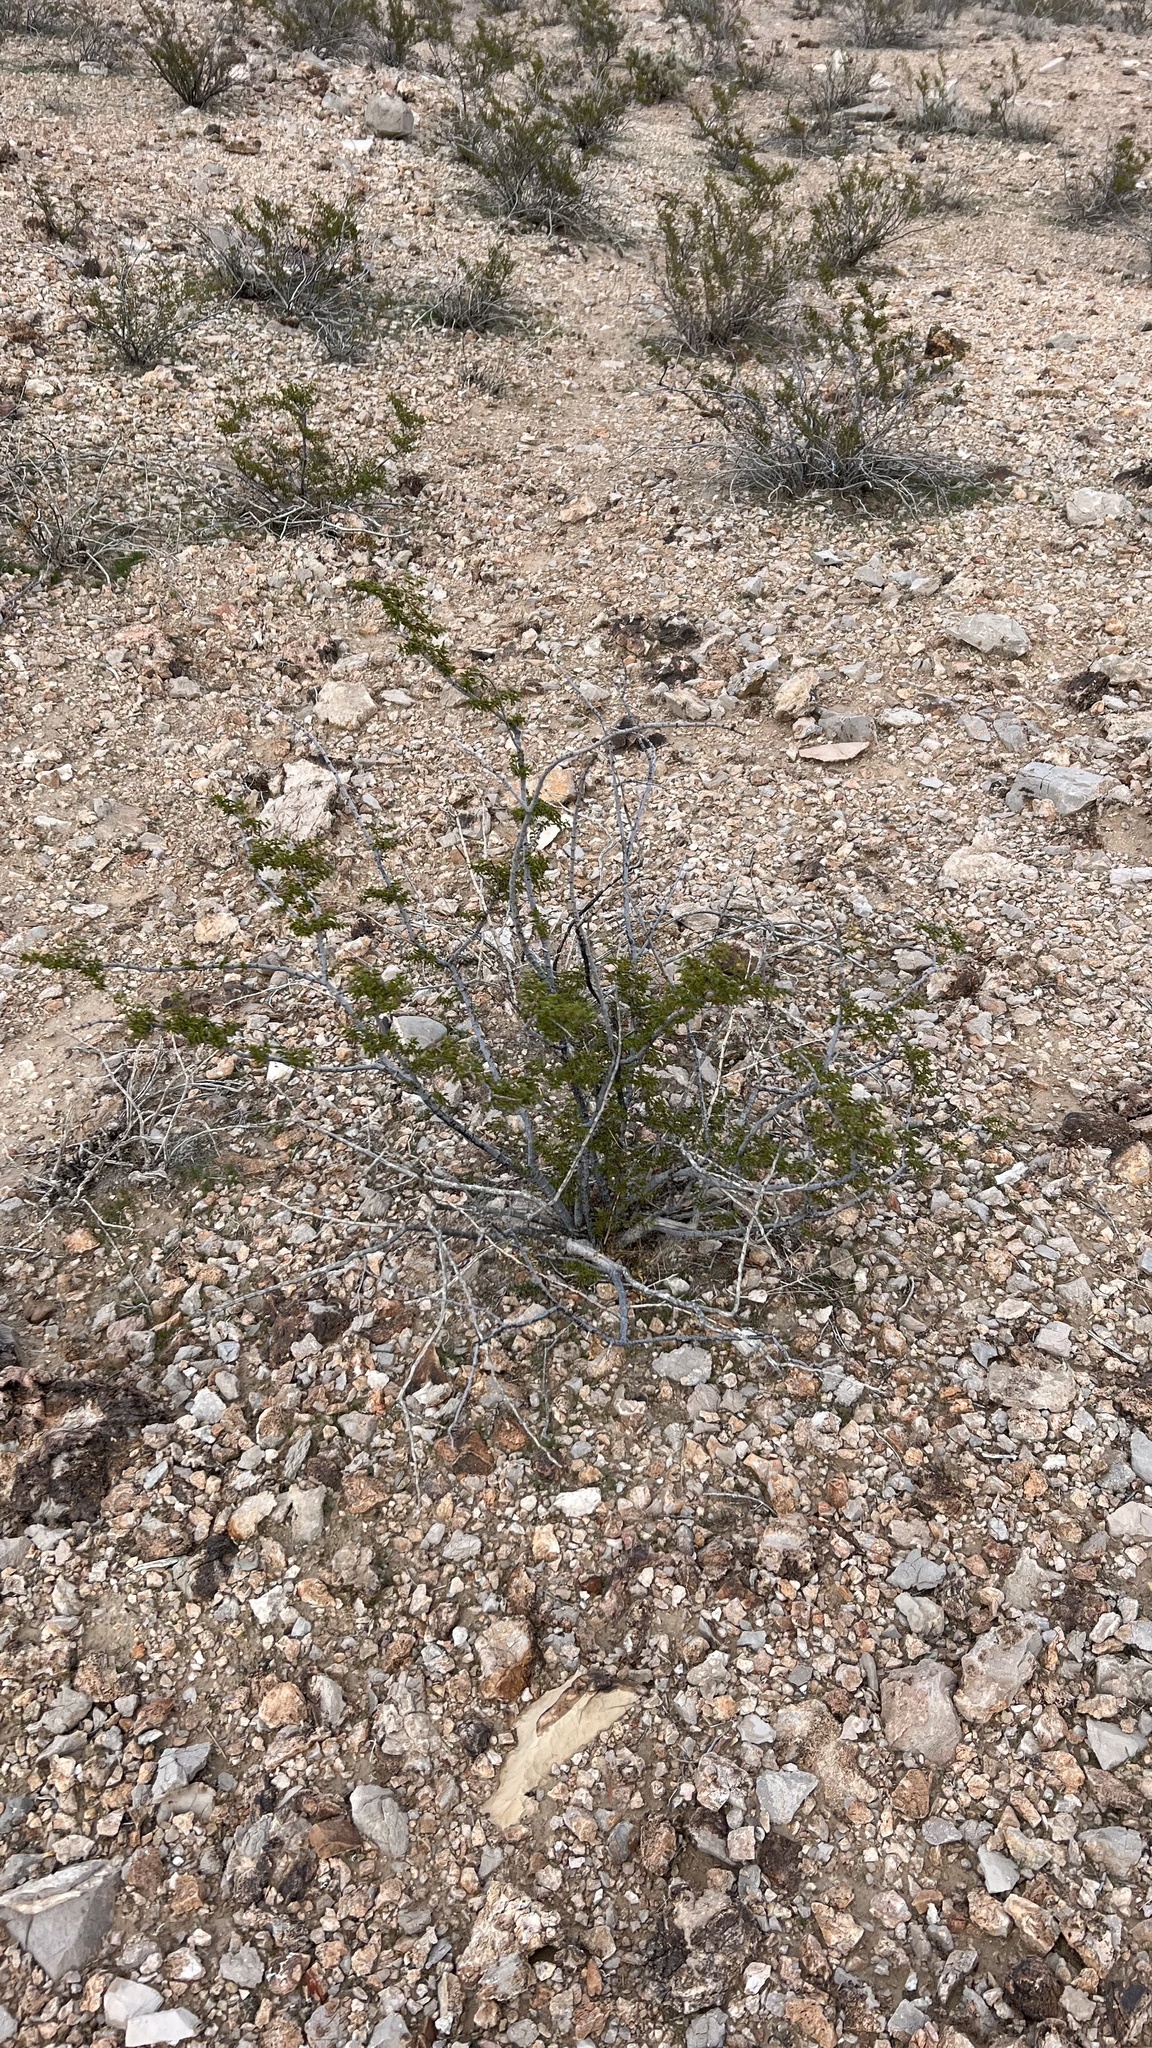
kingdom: Plantae
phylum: Tracheophyta
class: Magnoliopsida
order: Zygophyllales
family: Zygophyllaceae
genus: Larrea
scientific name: Larrea tridentata
